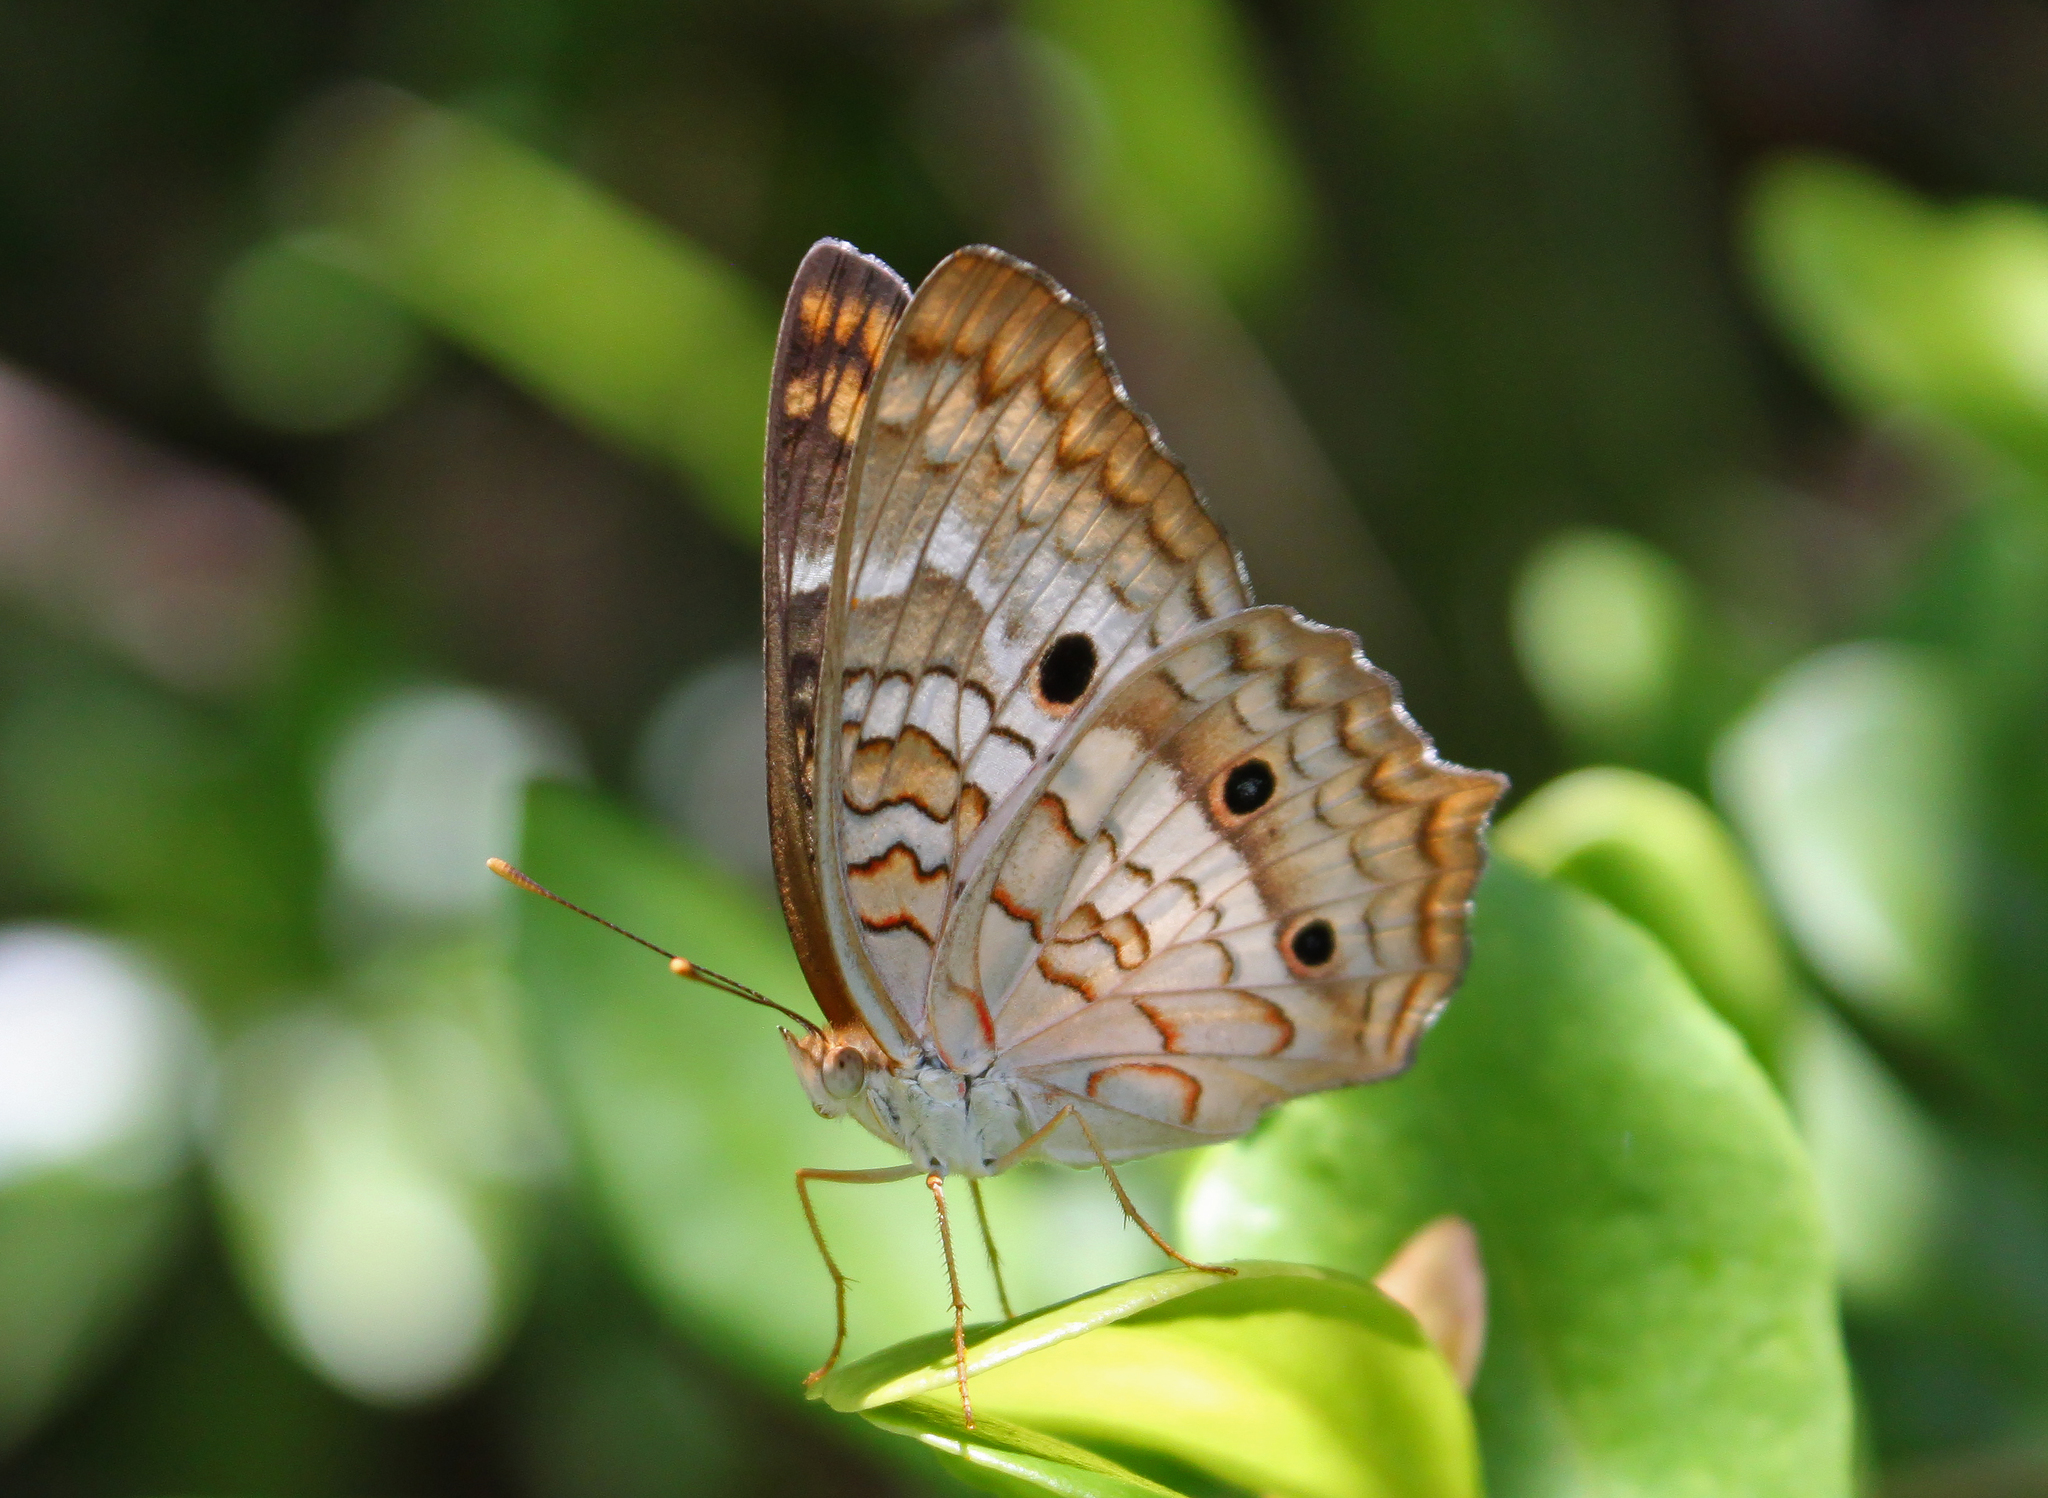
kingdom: Animalia
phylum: Arthropoda
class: Insecta
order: Lepidoptera
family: Nymphalidae
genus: Anartia
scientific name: Anartia jatrophae
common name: White peacock
